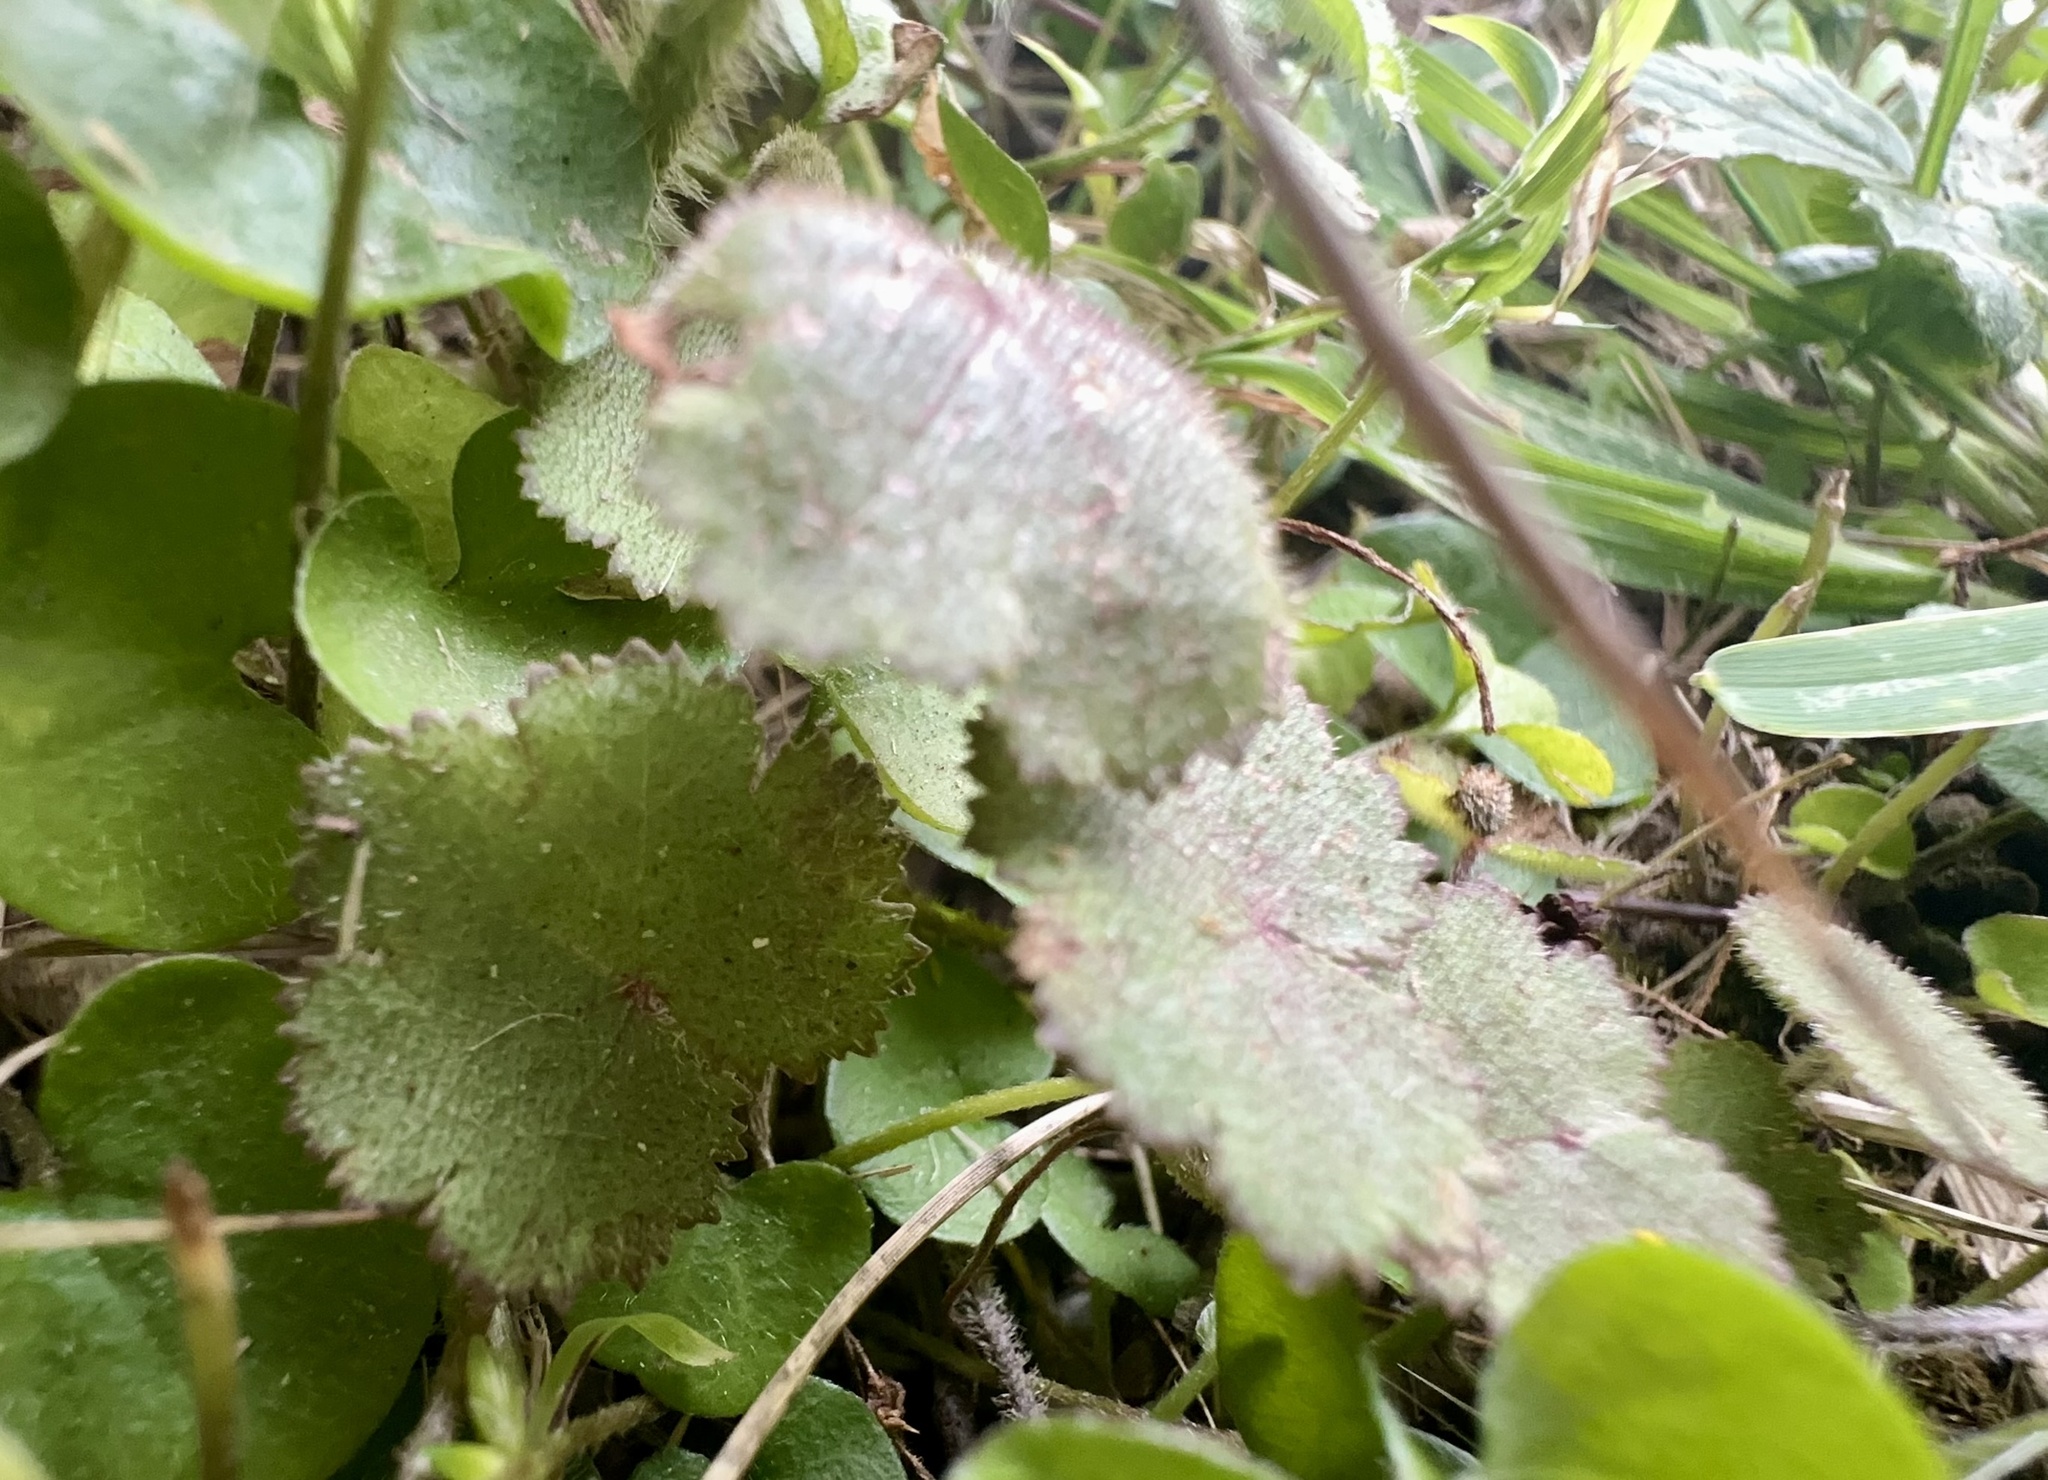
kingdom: Plantae
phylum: Tracheophyta
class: Magnoliopsida
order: Apiales
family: Araliaceae
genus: Hydrocotyle
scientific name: Hydrocotyle moschata
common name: Hairy pennywort
